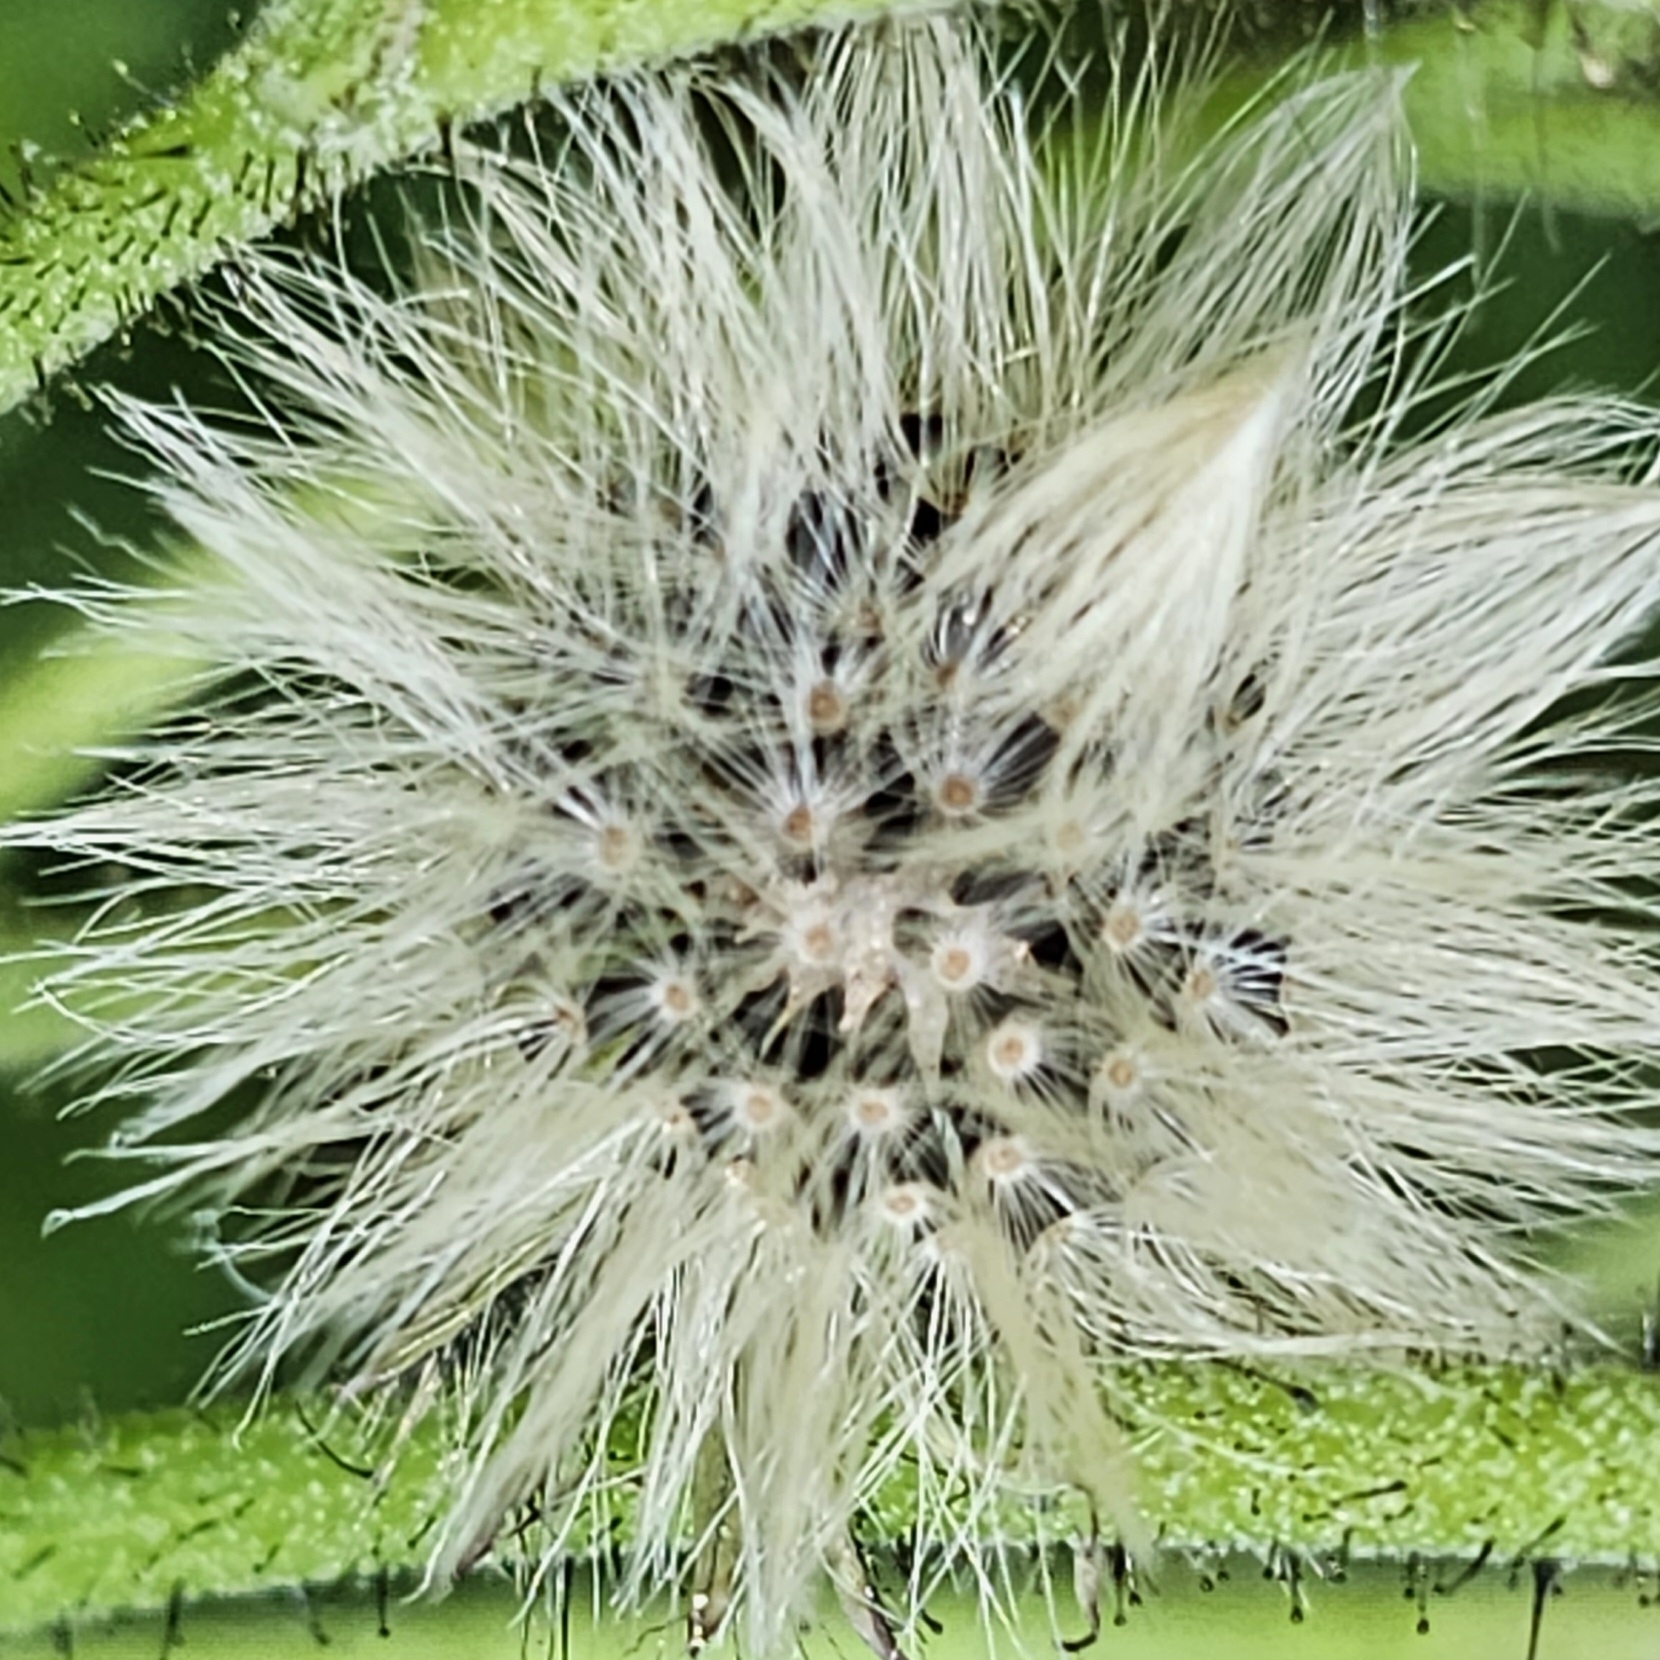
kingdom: Plantae
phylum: Tracheophyta
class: Magnoliopsida
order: Asterales
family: Asteraceae
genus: Pilosella
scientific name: Pilosella aurantiaca
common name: Fox-and-cubs
